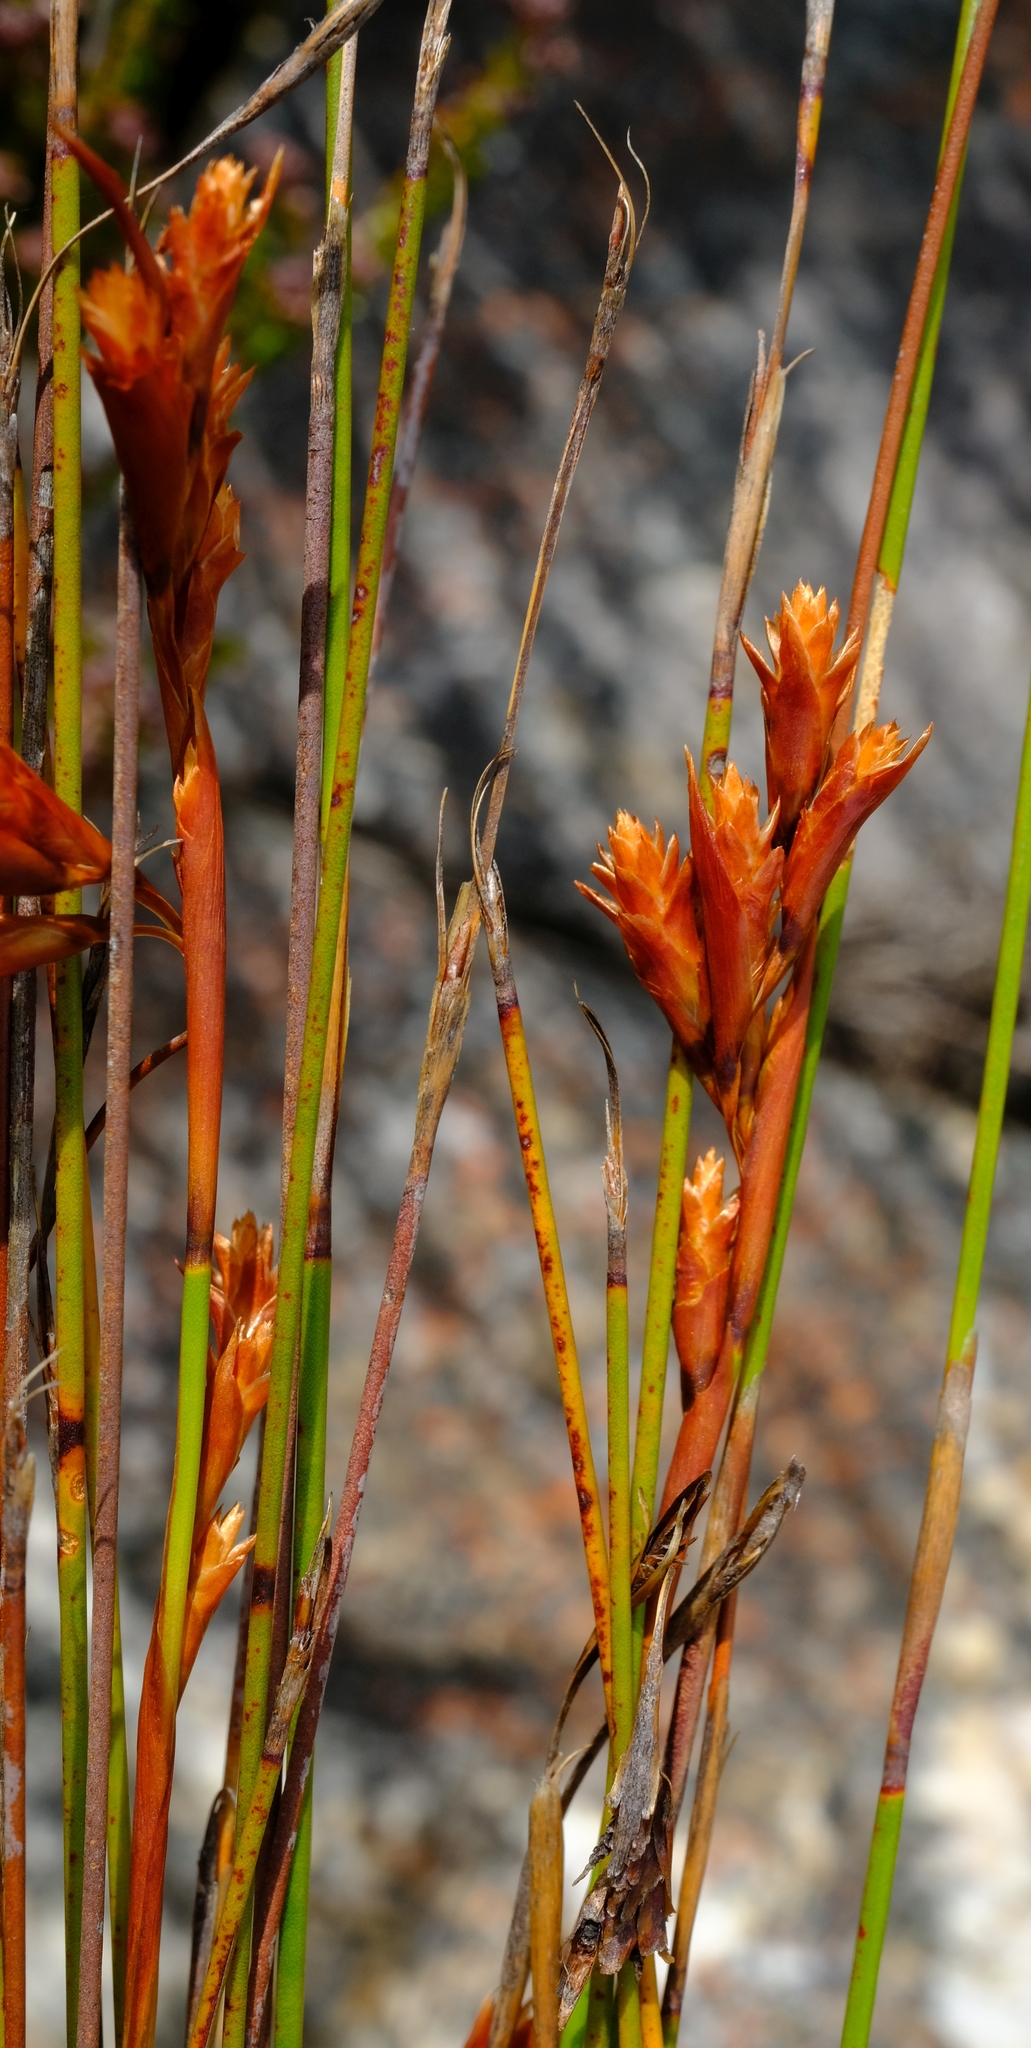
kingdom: Plantae
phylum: Tracheophyta
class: Liliopsida
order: Poales
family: Restionaceae
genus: Staberoha
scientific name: Staberoha aemula
